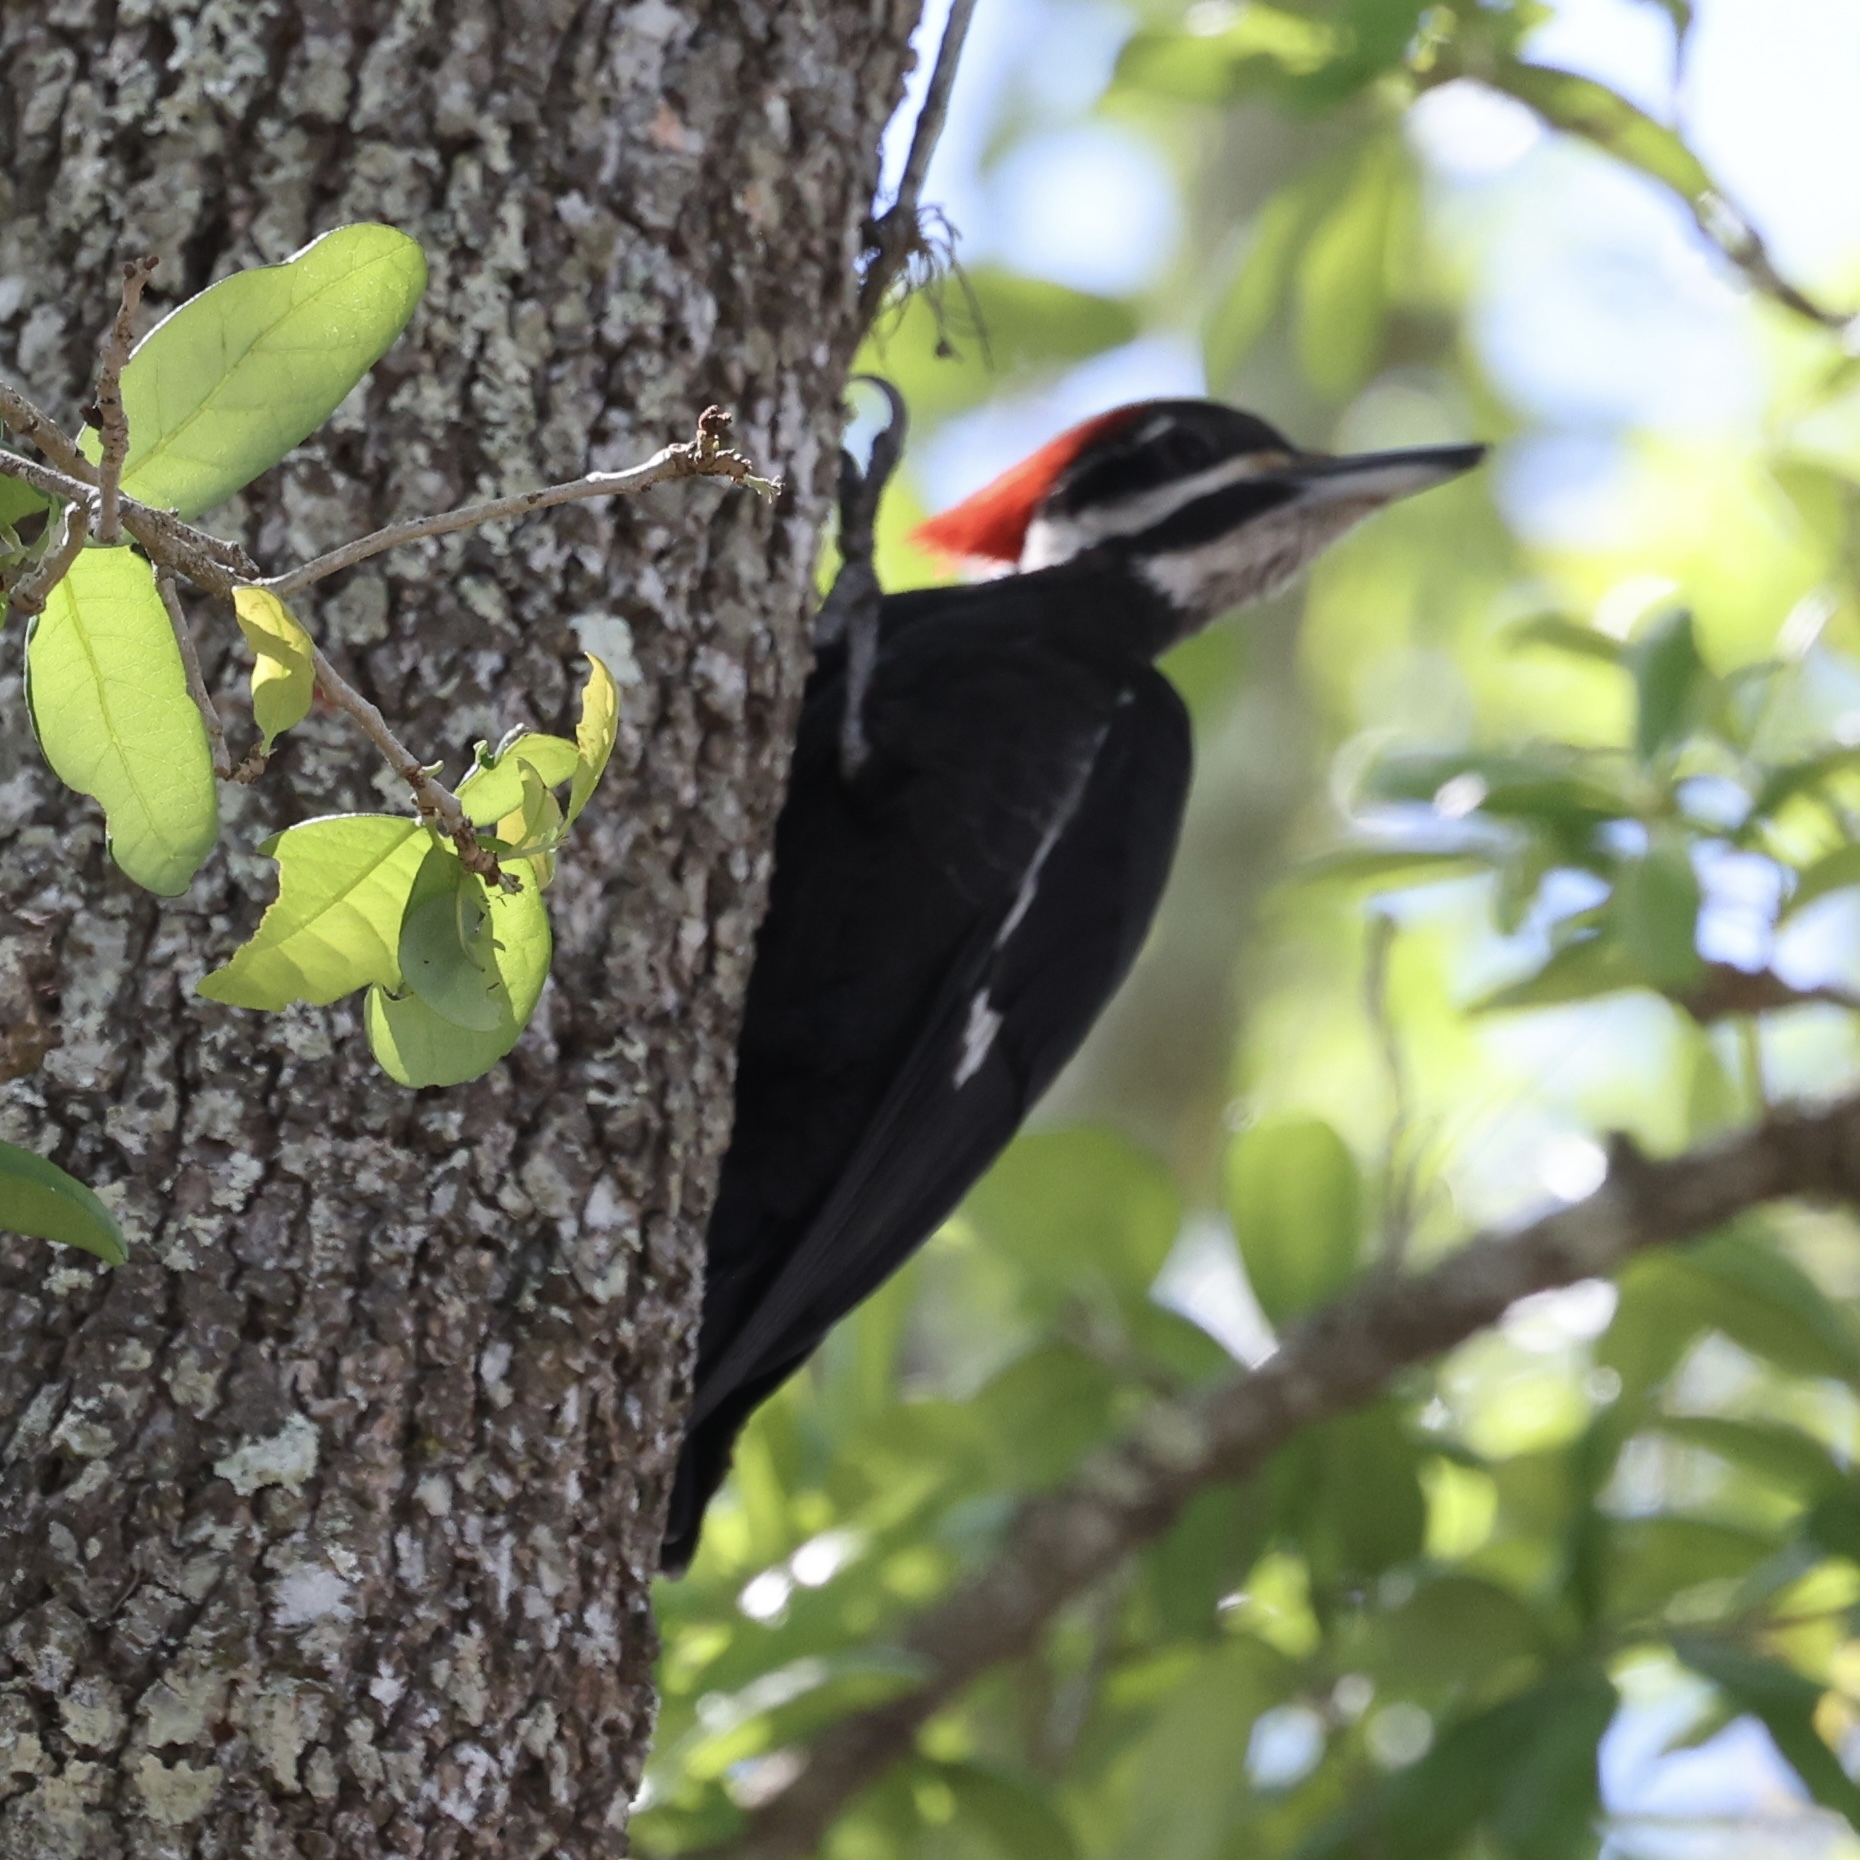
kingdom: Animalia
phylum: Chordata
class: Aves
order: Piciformes
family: Picidae
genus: Dryocopus
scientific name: Dryocopus pileatus
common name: Pileated woodpecker
